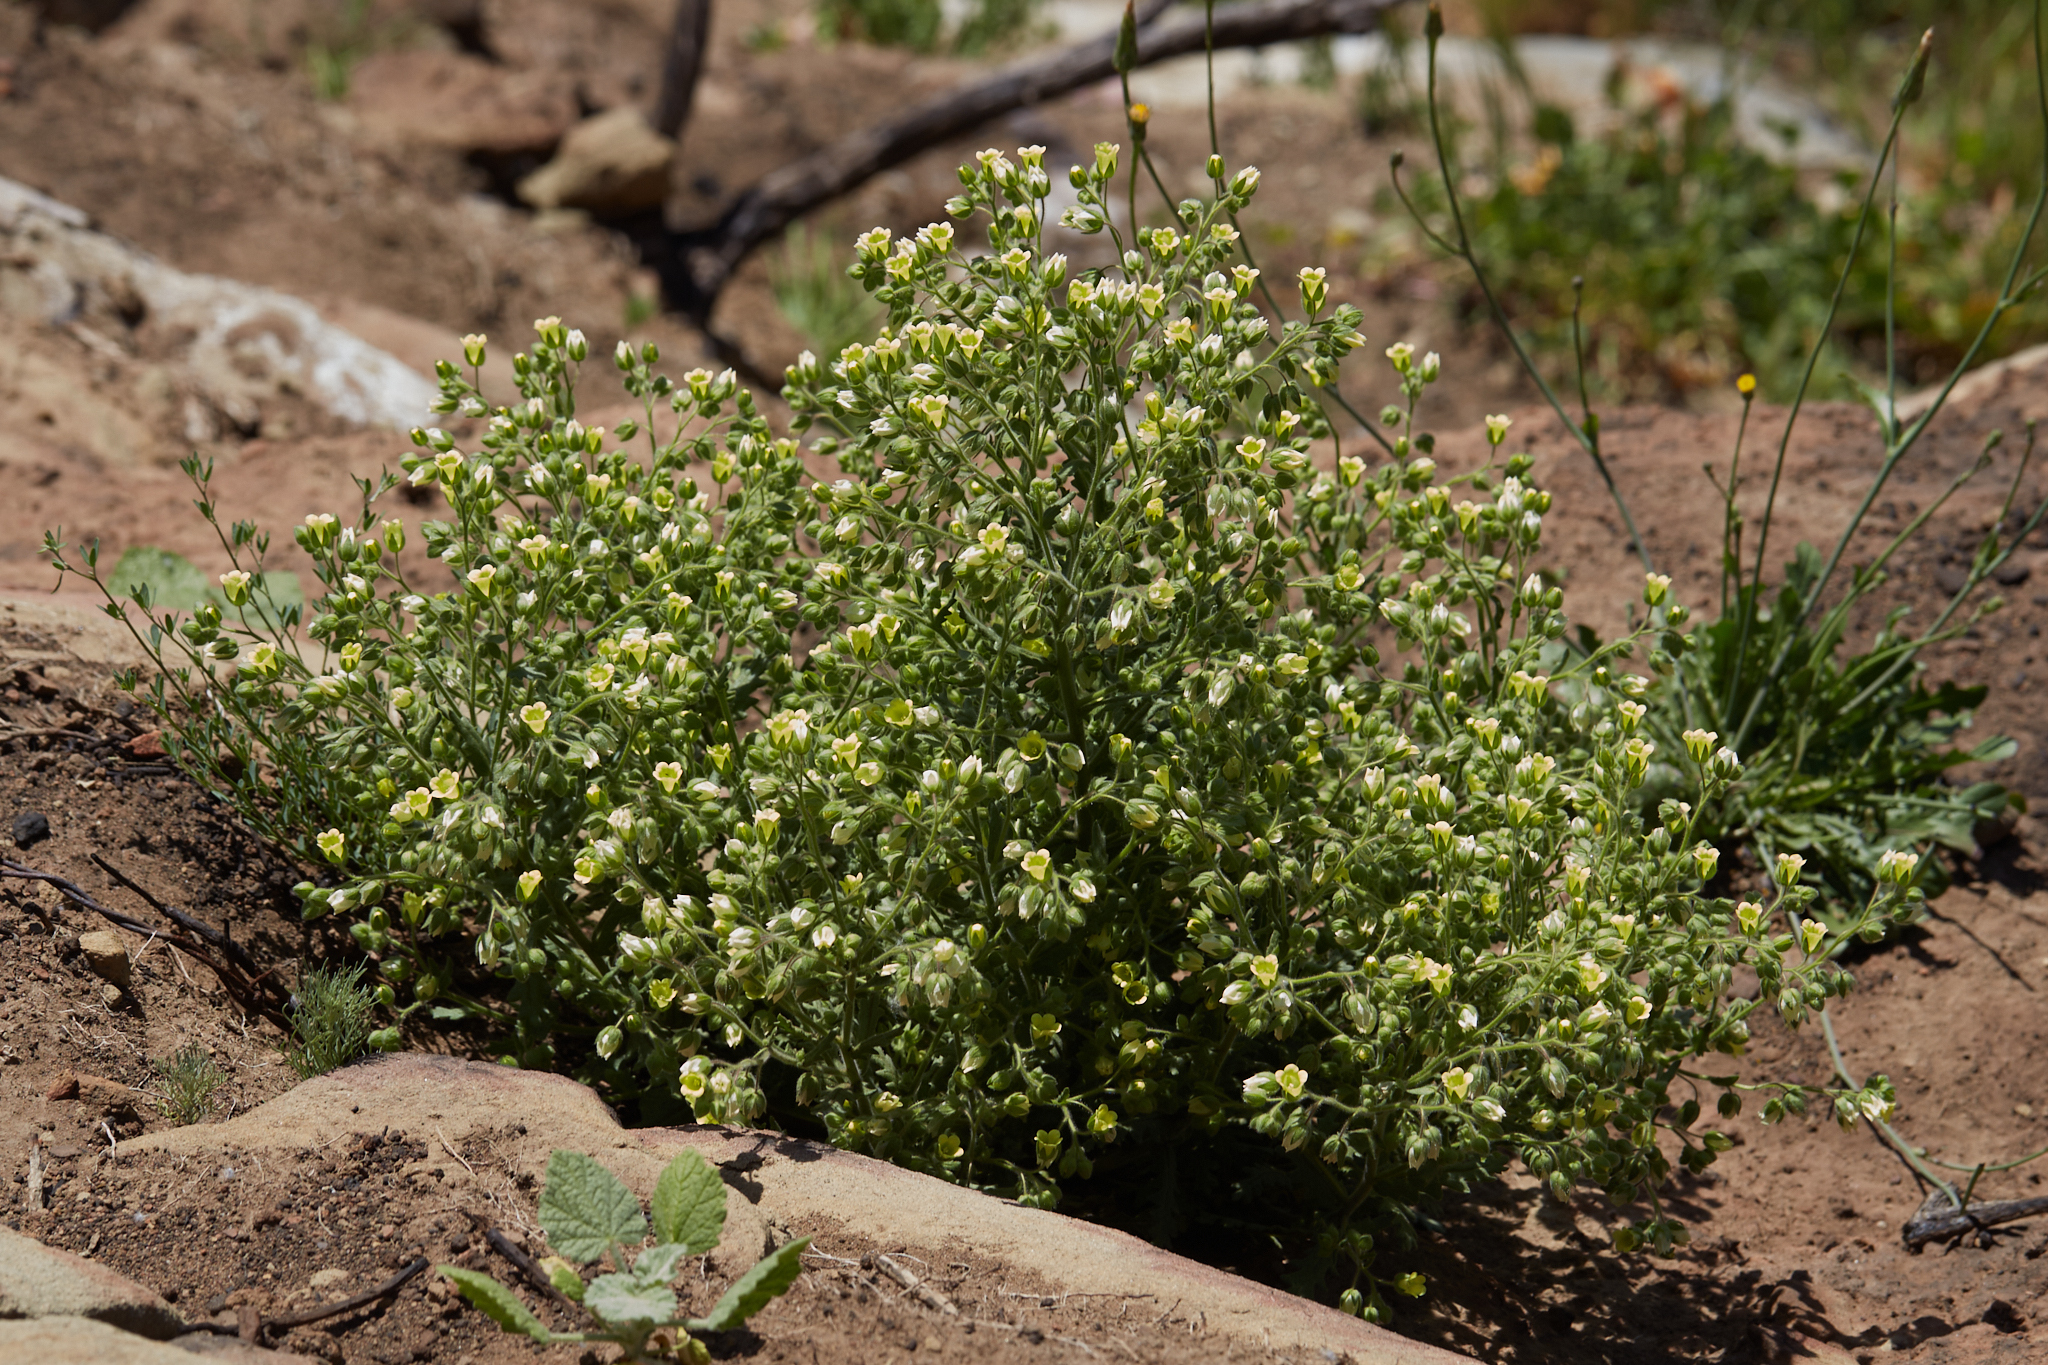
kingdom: Plantae
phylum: Tracheophyta
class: Magnoliopsida
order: Boraginales
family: Hydrophyllaceae
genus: Emmenanthe
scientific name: Emmenanthe penduliflora
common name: Whispering-bells
